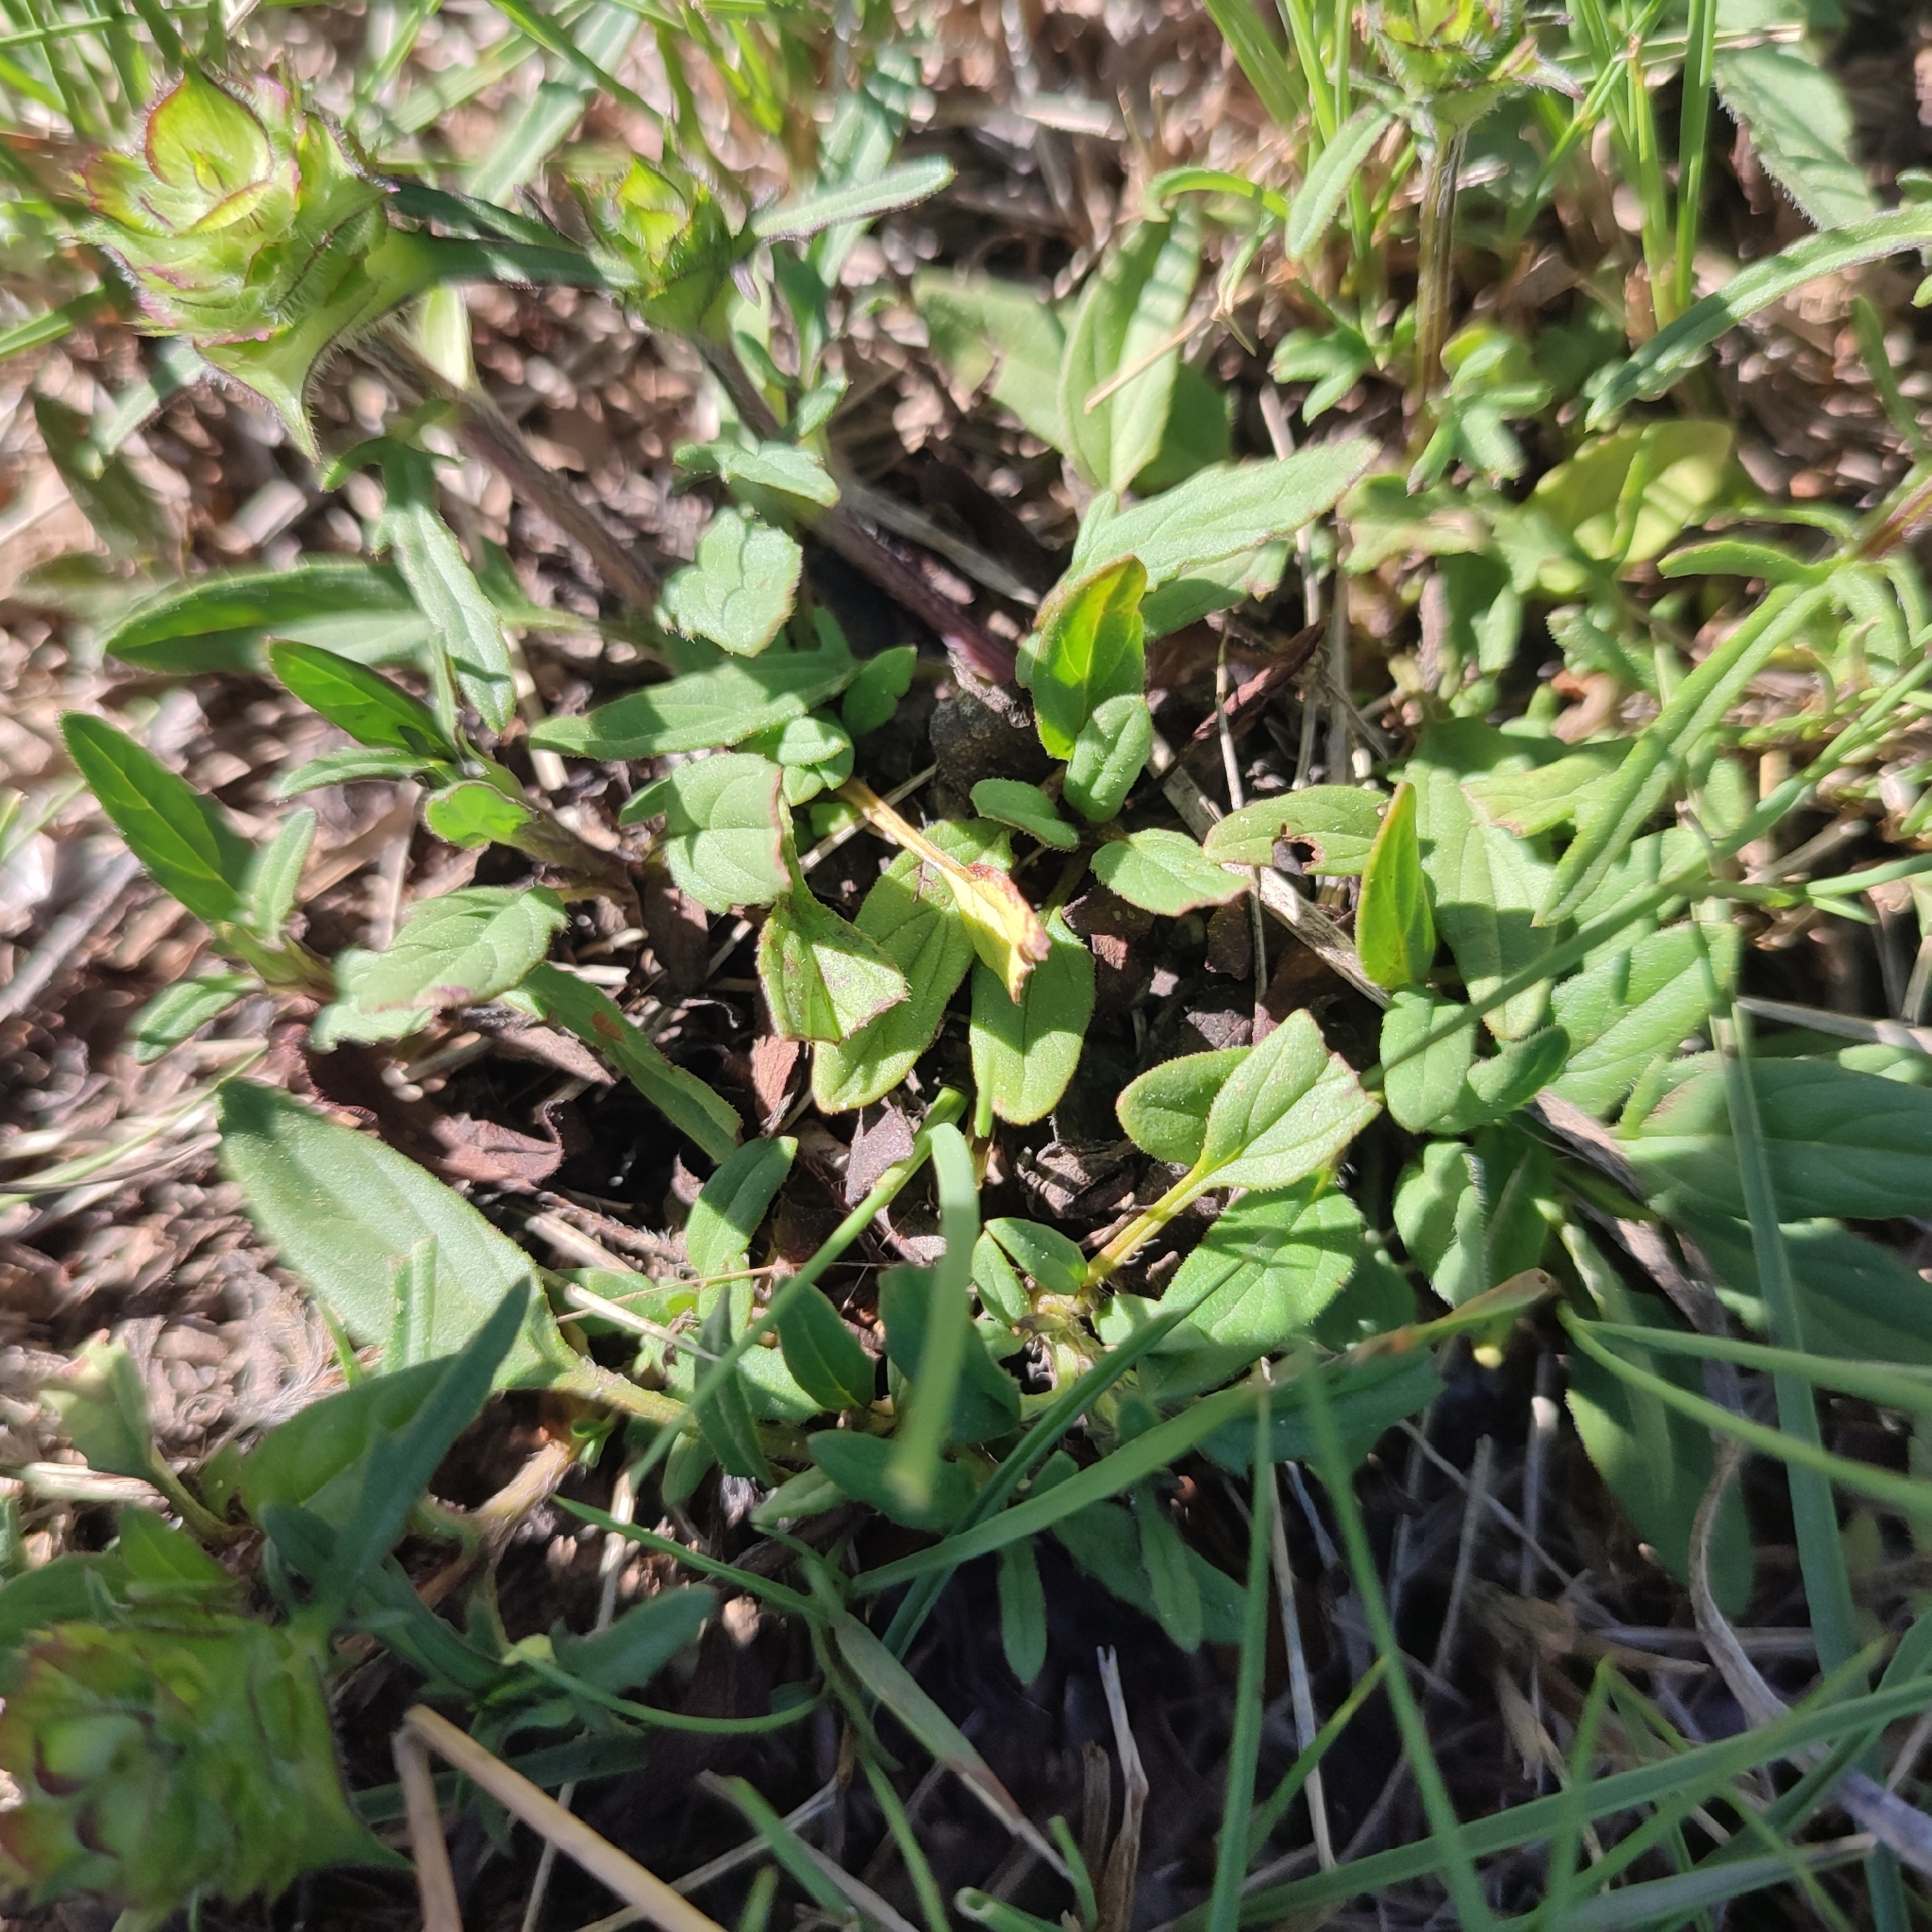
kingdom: Plantae
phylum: Tracheophyta
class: Magnoliopsida
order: Lamiales
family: Lamiaceae
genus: Prunella
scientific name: Prunella laciniata
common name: Cut-leaved selfheal
